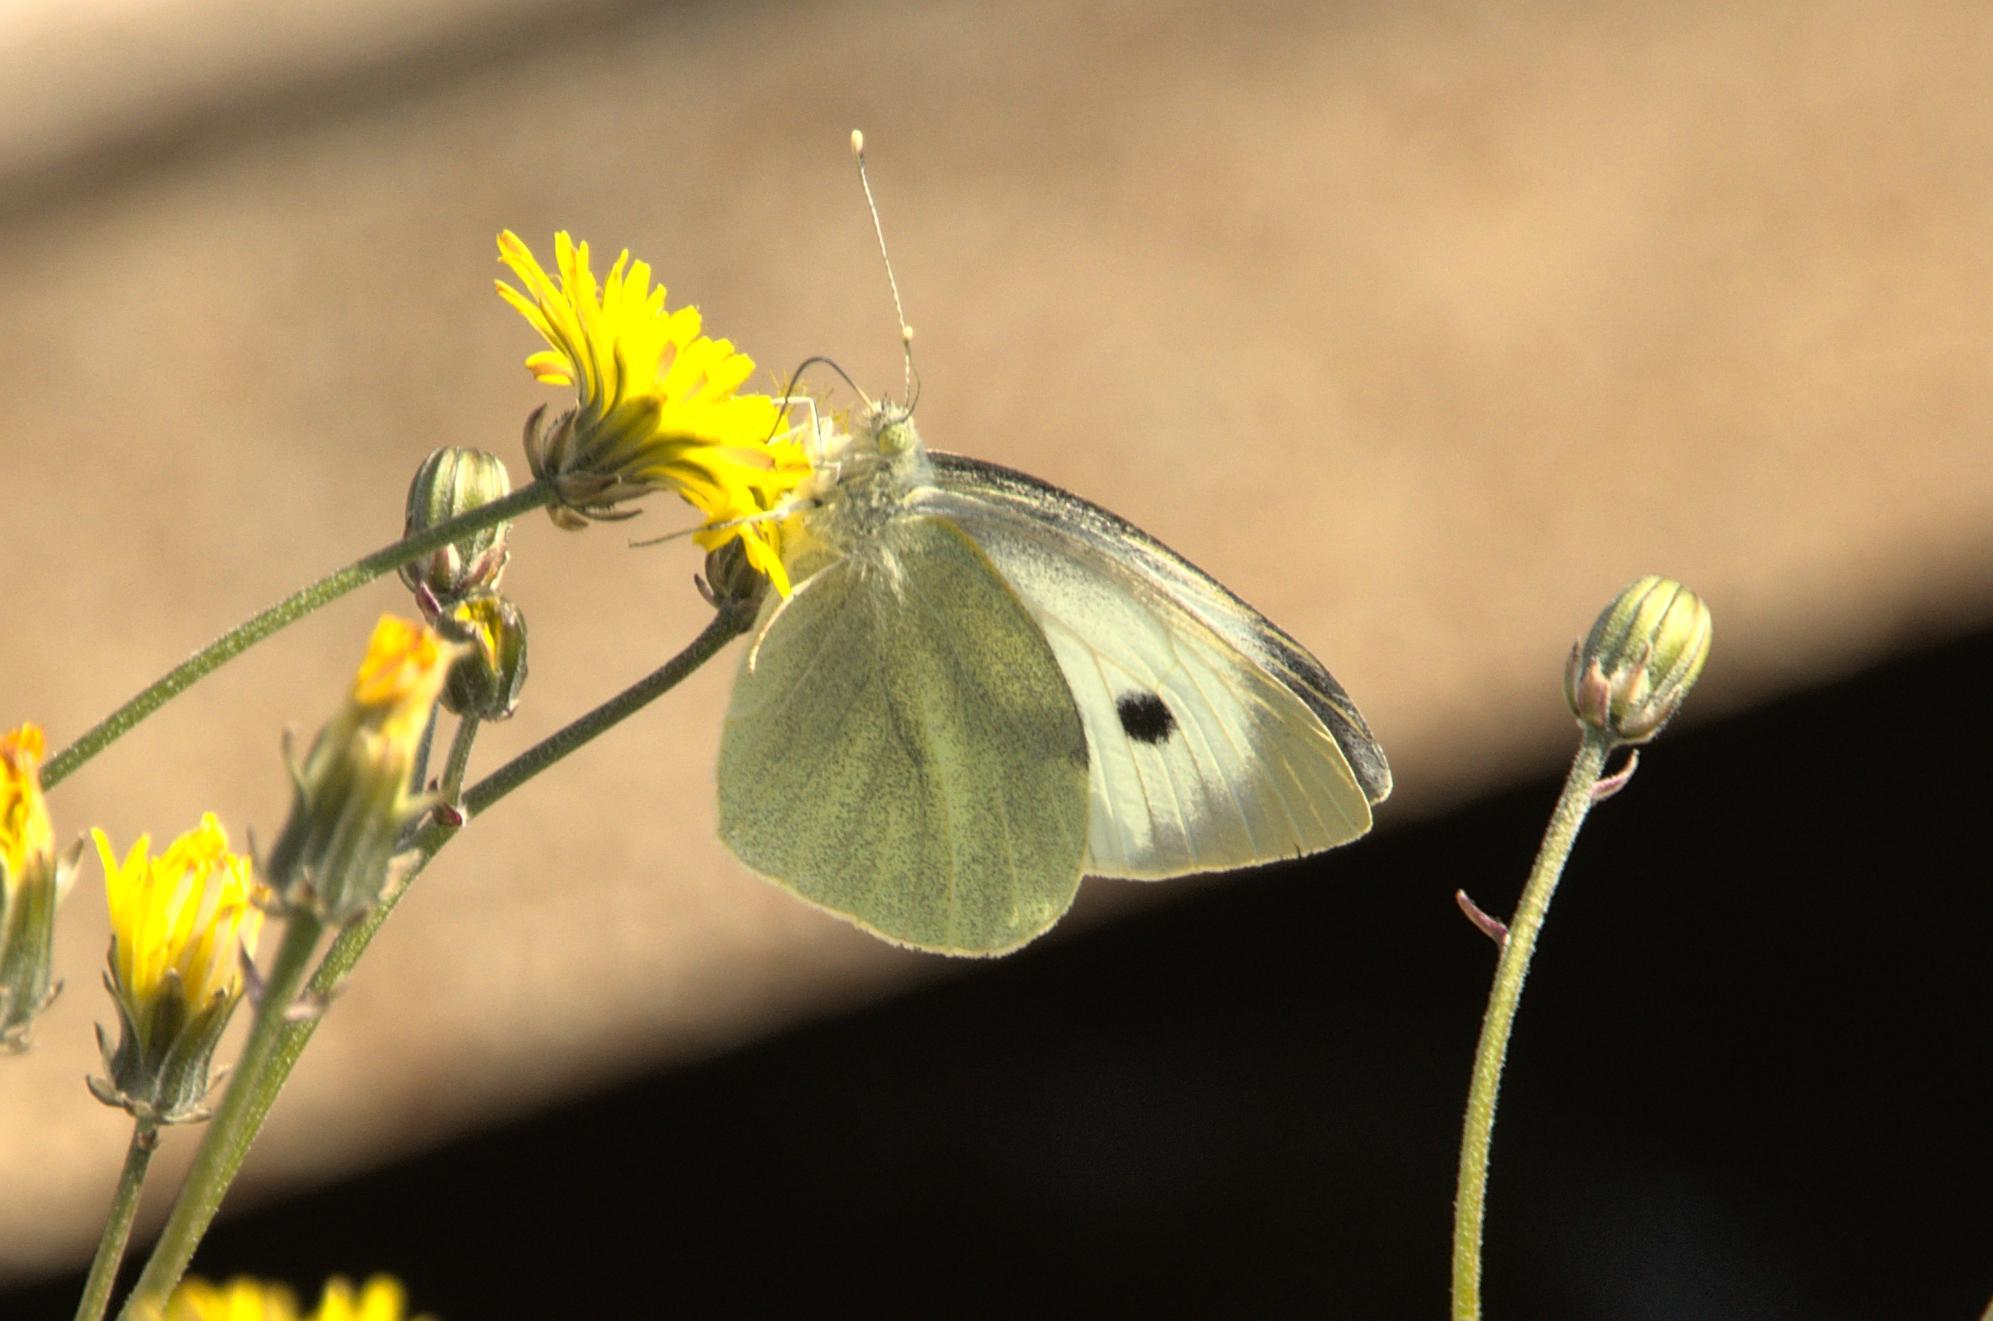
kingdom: Animalia
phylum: Arthropoda
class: Insecta
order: Lepidoptera
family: Pieridae
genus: Pieris
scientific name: Pieris brassicae
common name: Large white
